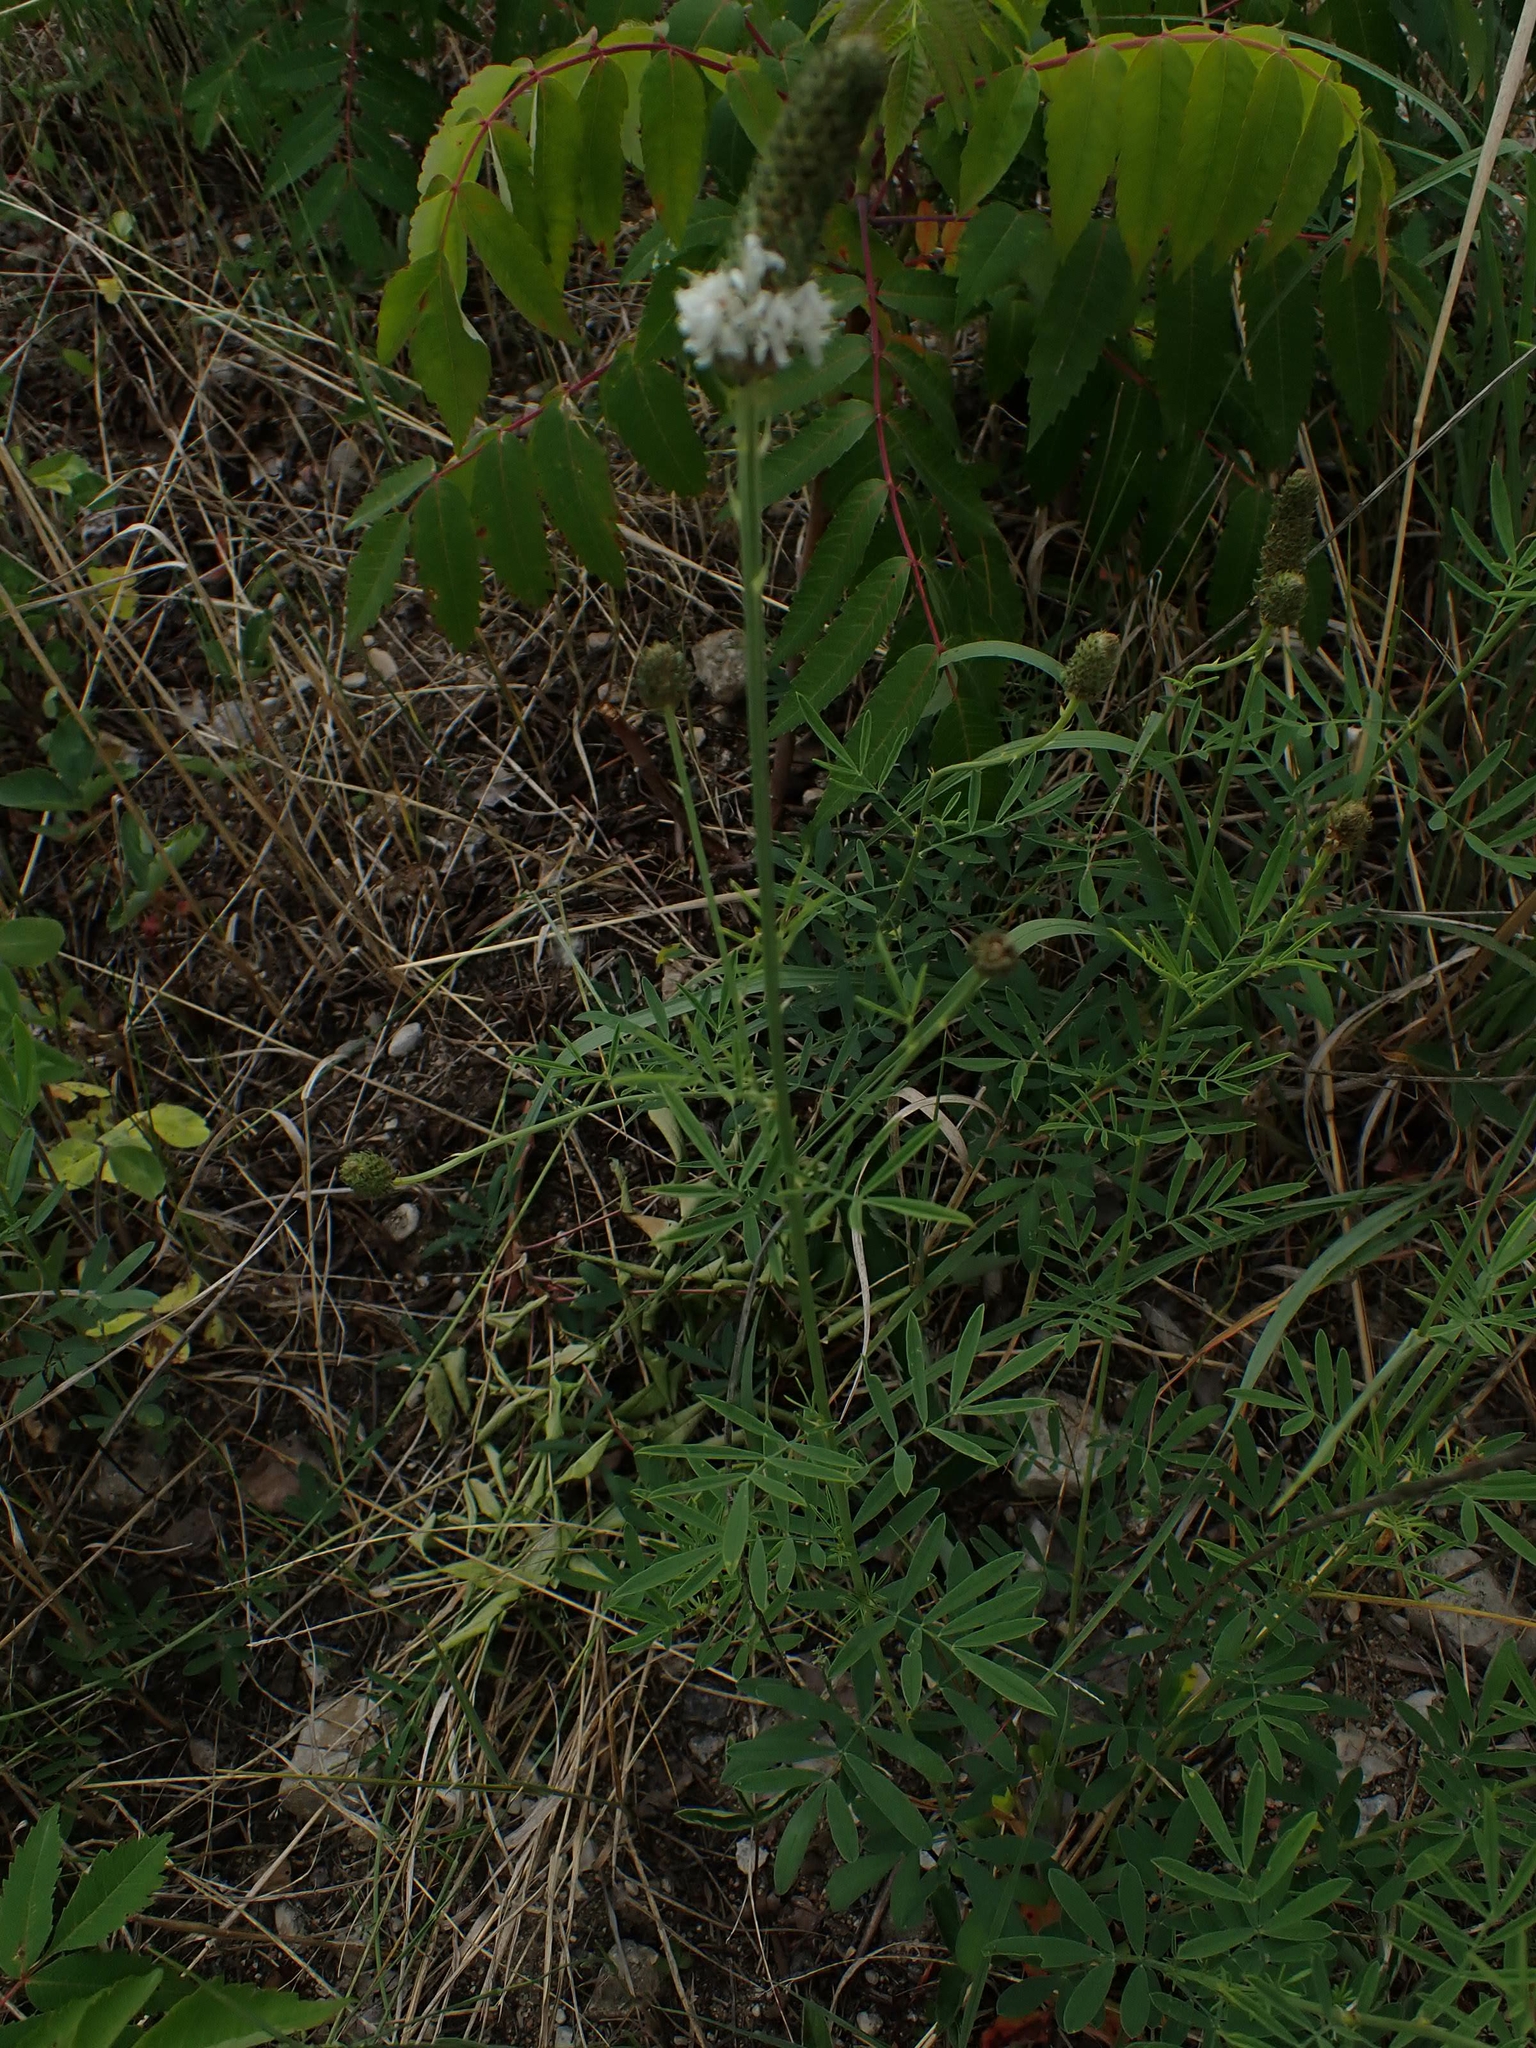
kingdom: Plantae
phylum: Tracheophyta
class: Magnoliopsida
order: Fabales
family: Fabaceae
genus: Dalea
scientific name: Dalea candida
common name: White prairie-clover
